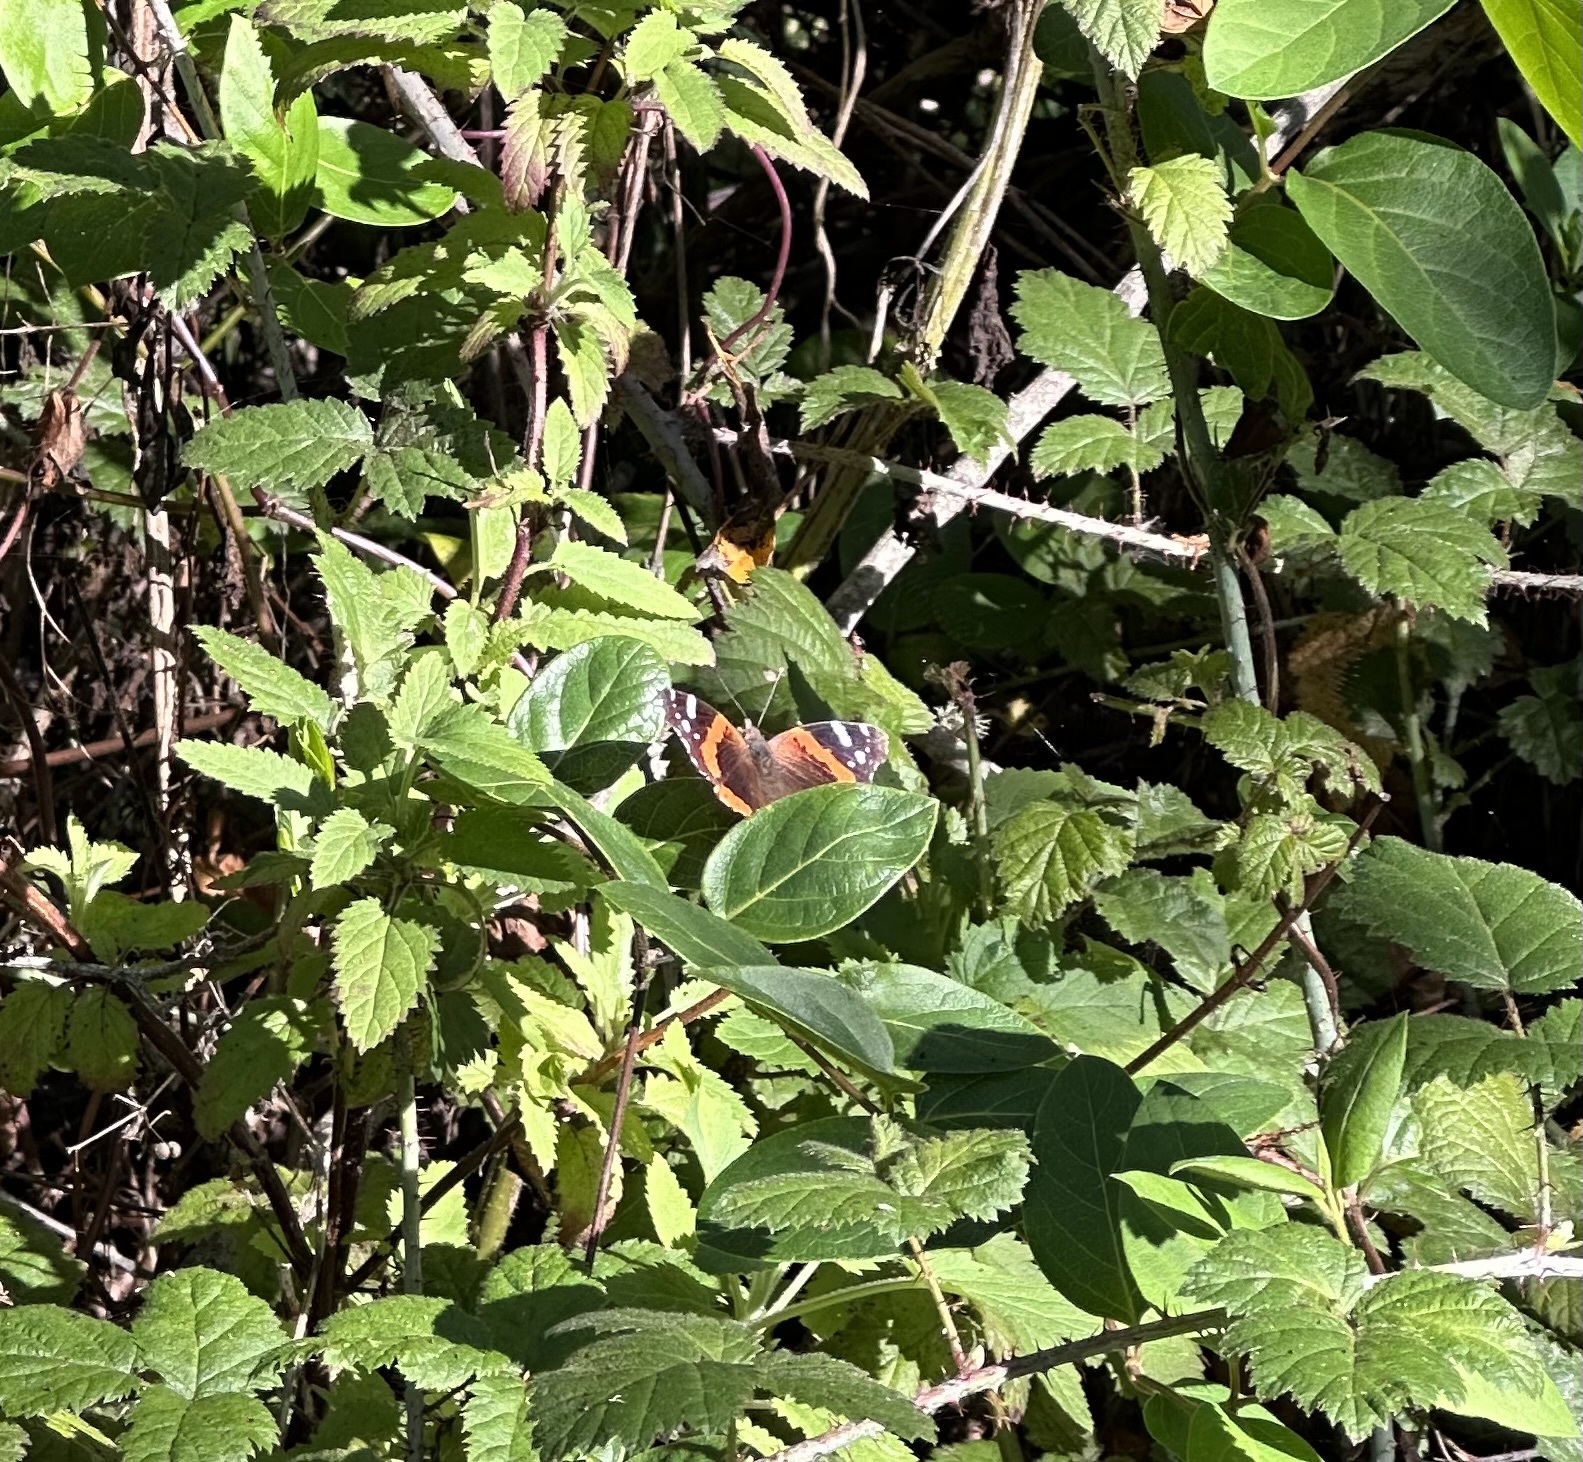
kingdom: Animalia
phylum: Arthropoda
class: Insecta
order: Lepidoptera
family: Nymphalidae
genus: Vanessa
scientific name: Vanessa atalanta
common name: Red admiral
